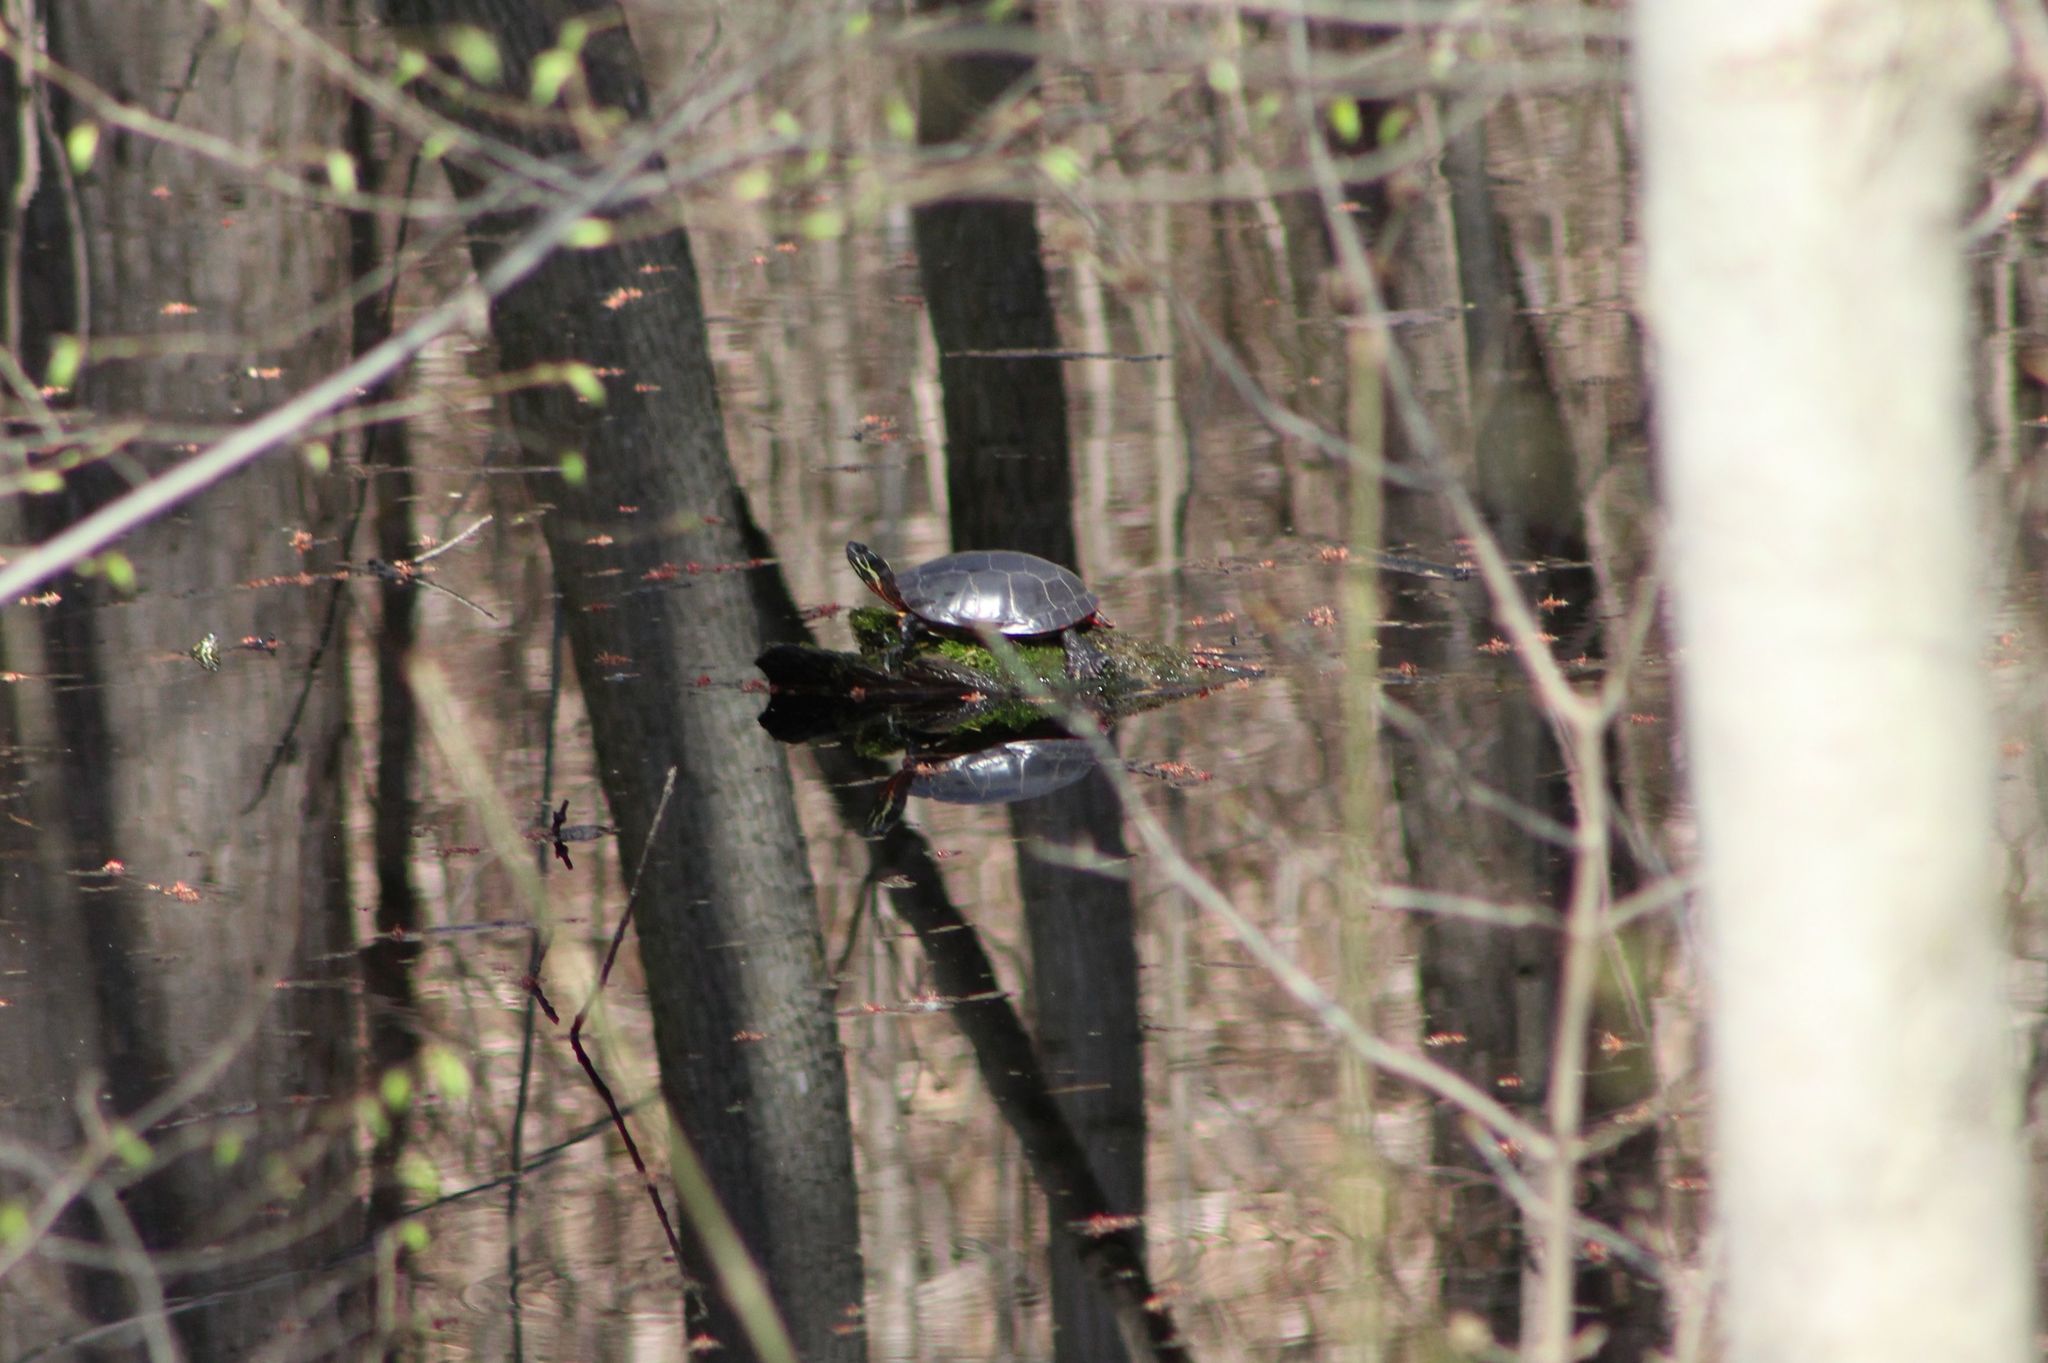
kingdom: Animalia
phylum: Chordata
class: Testudines
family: Emydidae
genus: Chrysemys
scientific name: Chrysemys picta
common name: Painted turtle
